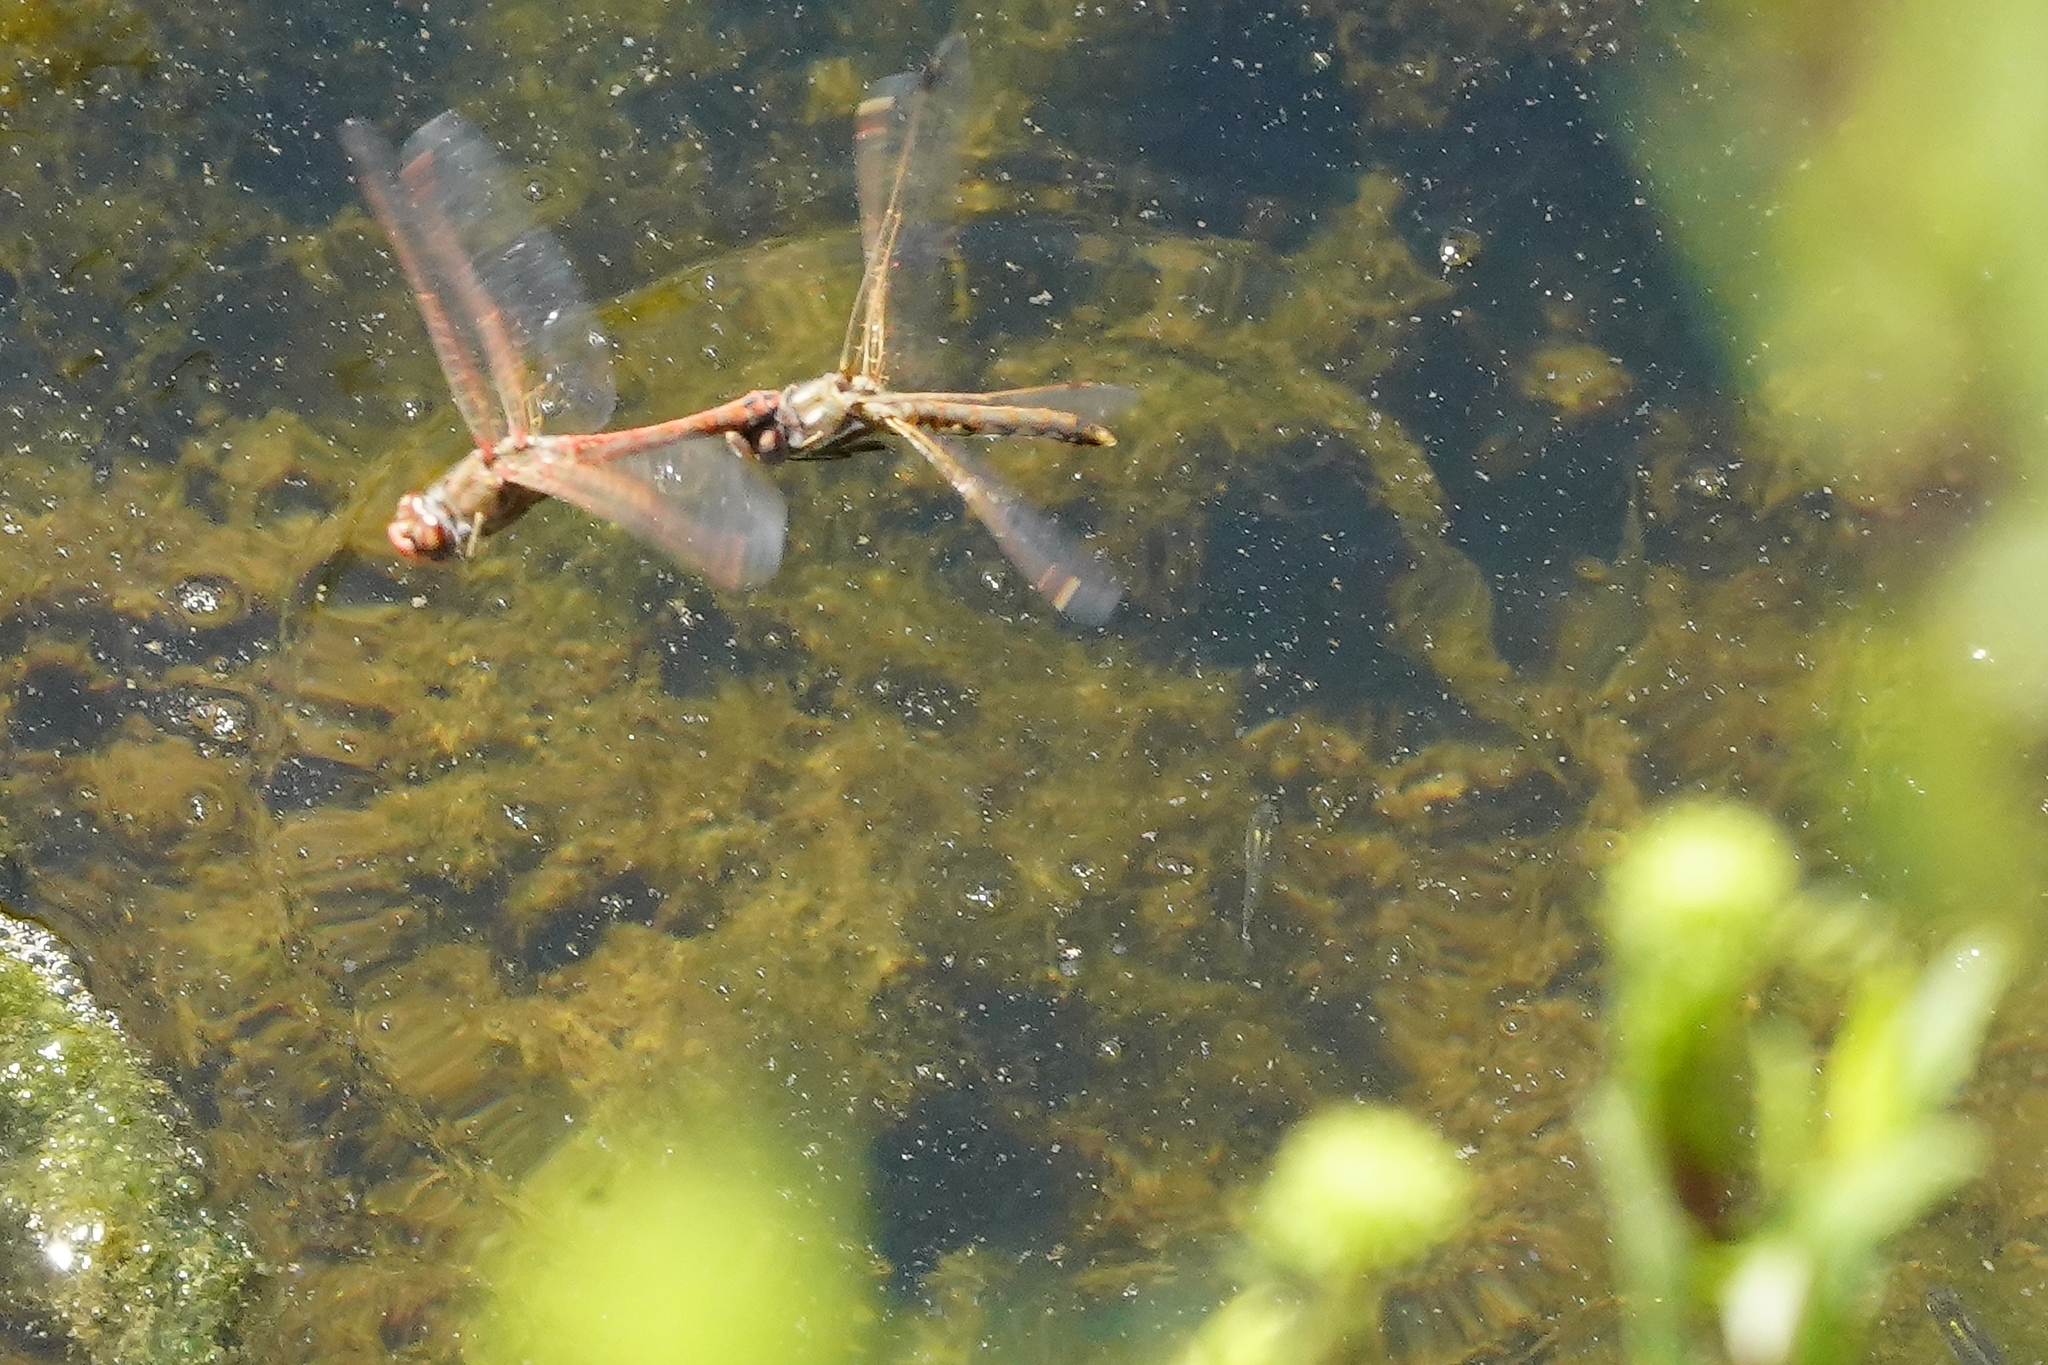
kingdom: Animalia
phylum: Arthropoda
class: Insecta
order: Odonata
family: Libellulidae
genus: Sympetrum
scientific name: Sympetrum corruptum
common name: Variegated meadowhawk
